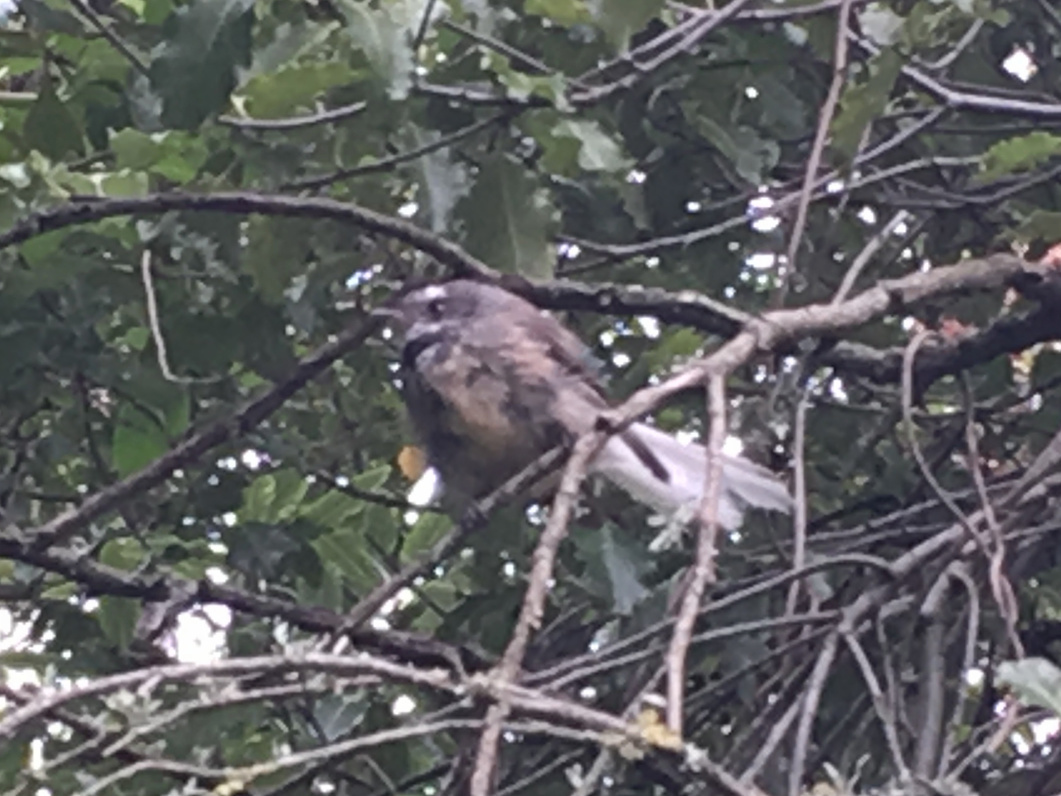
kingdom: Animalia
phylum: Chordata
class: Aves
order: Passeriformes
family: Rhipiduridae
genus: Rhipidura
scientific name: Rhipidura fuliginosa
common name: New zealand fantail
